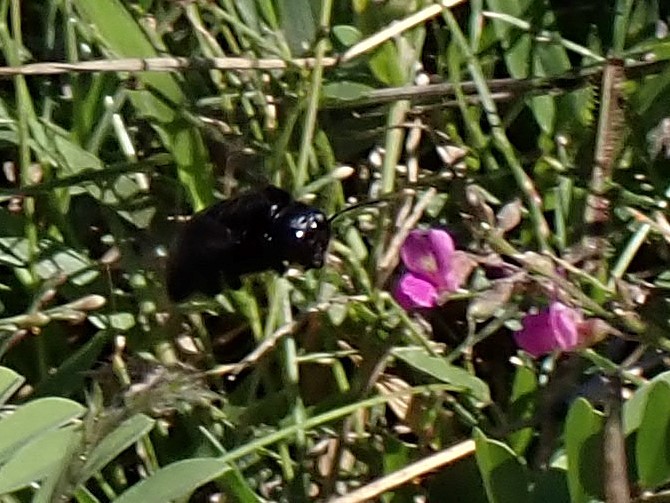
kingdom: Animalia
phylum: Arthropoda
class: Insecta
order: Hymenoptera
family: Apidae
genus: Xylocopa
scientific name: Xylocopa mordax
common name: Antillean carpenter bee
